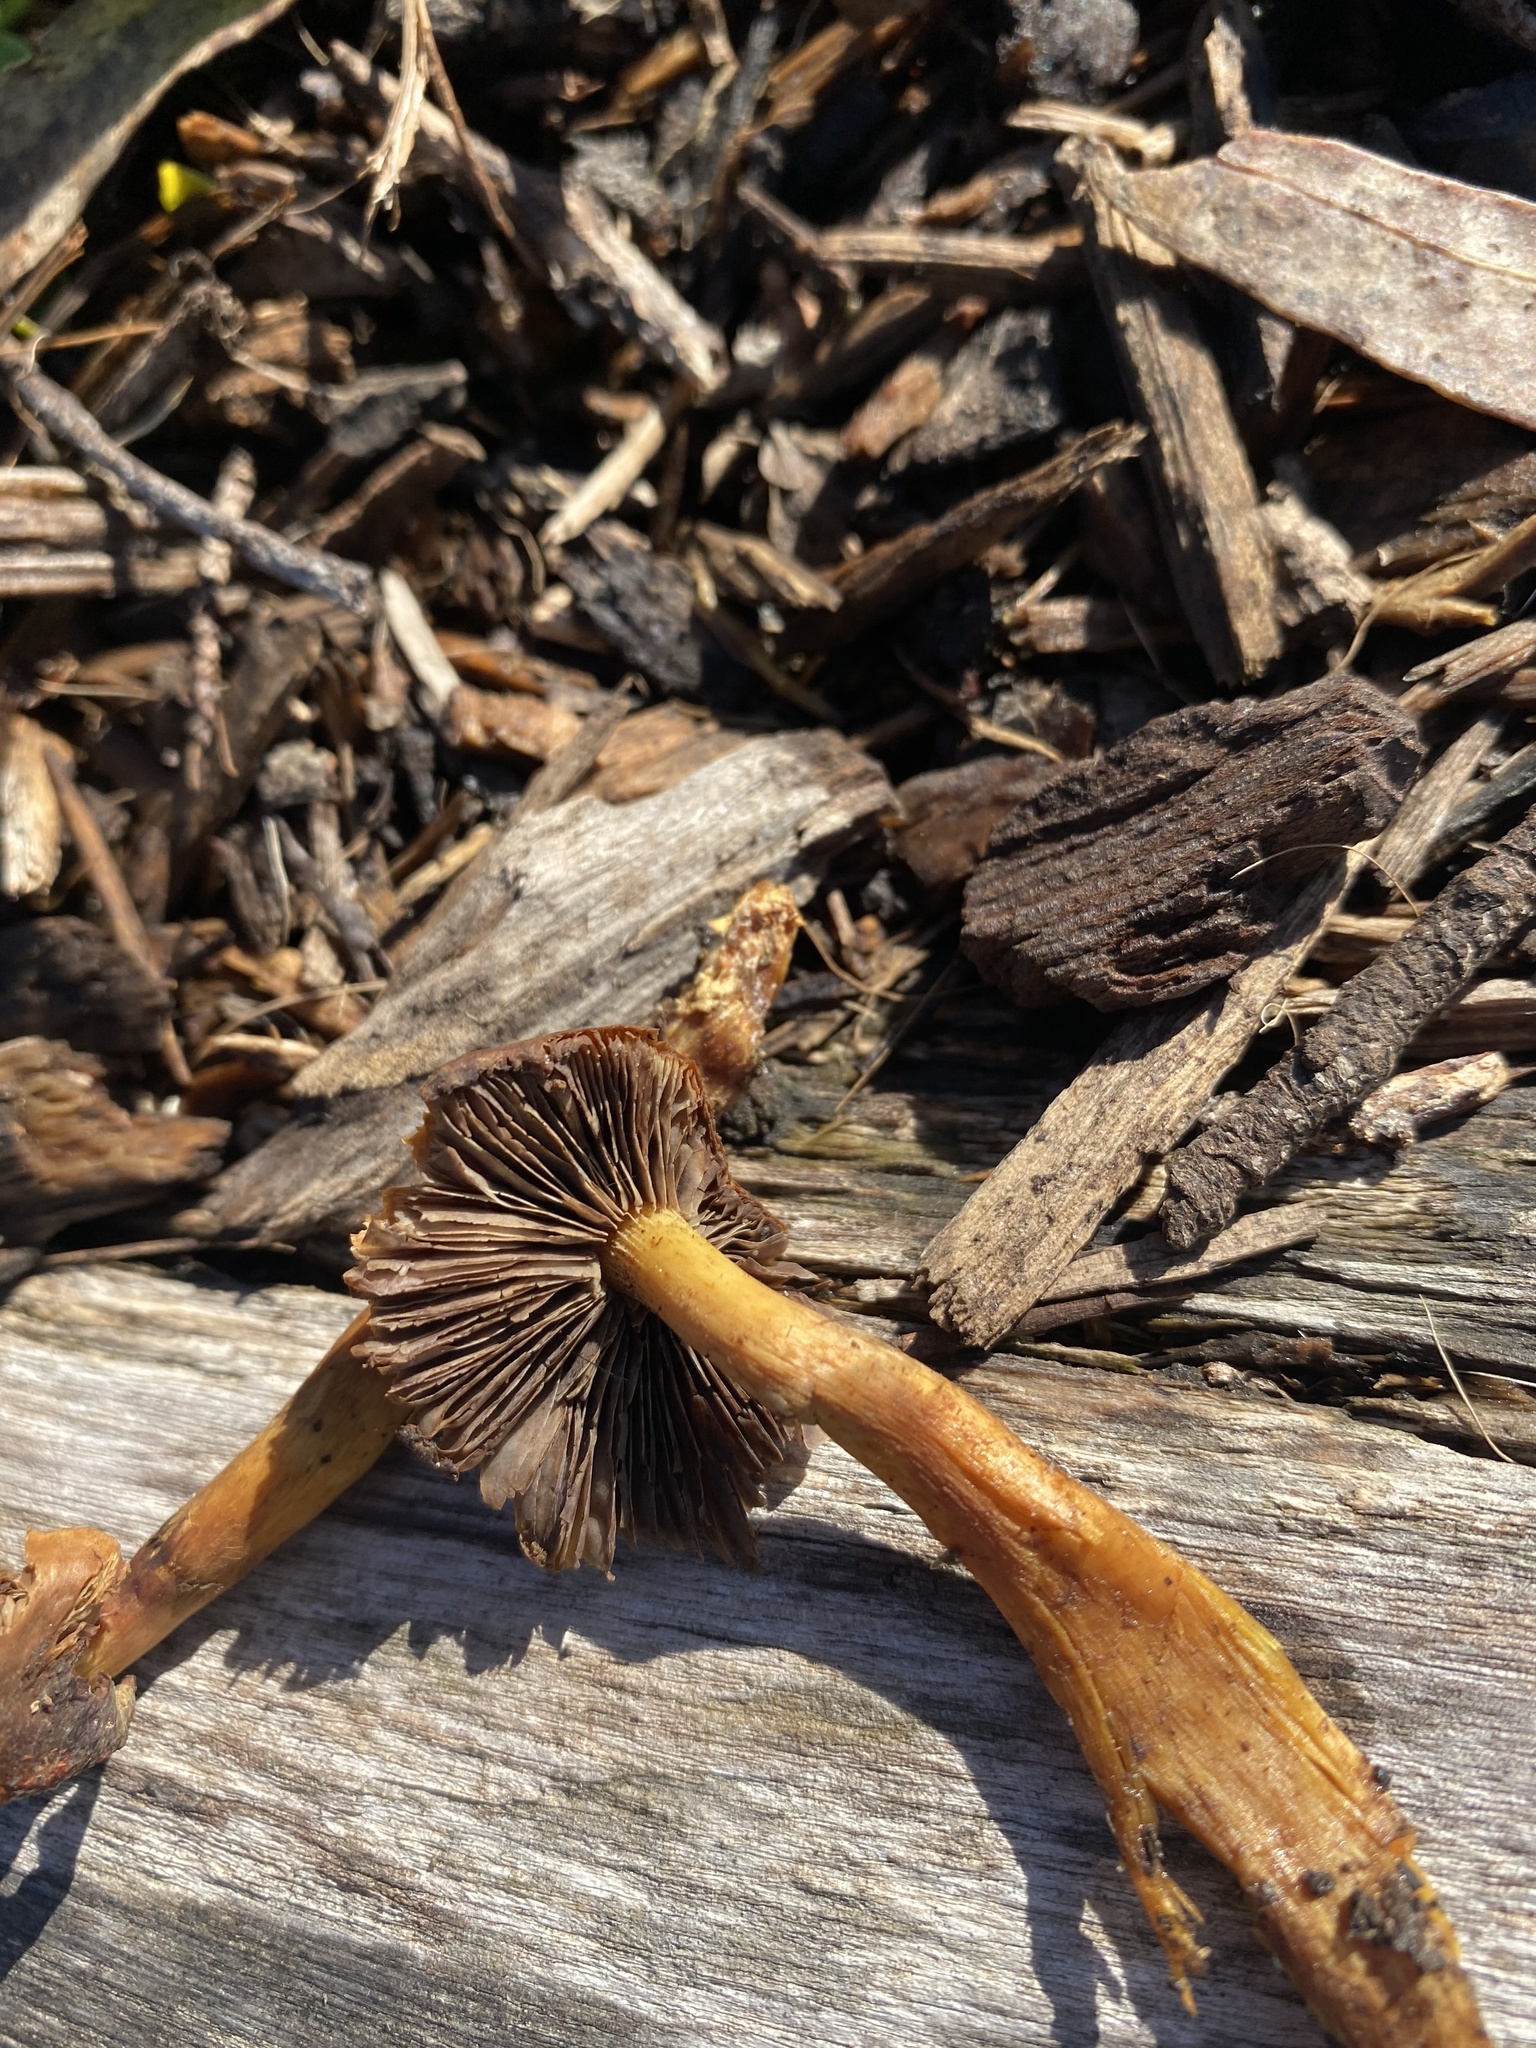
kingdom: Fungi
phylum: Basidiomycota
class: Agaricomycetes
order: Agaricales
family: Strophariaceae
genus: Hypholoma
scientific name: Hypholoma fasciculare
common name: Sulphur tuft
